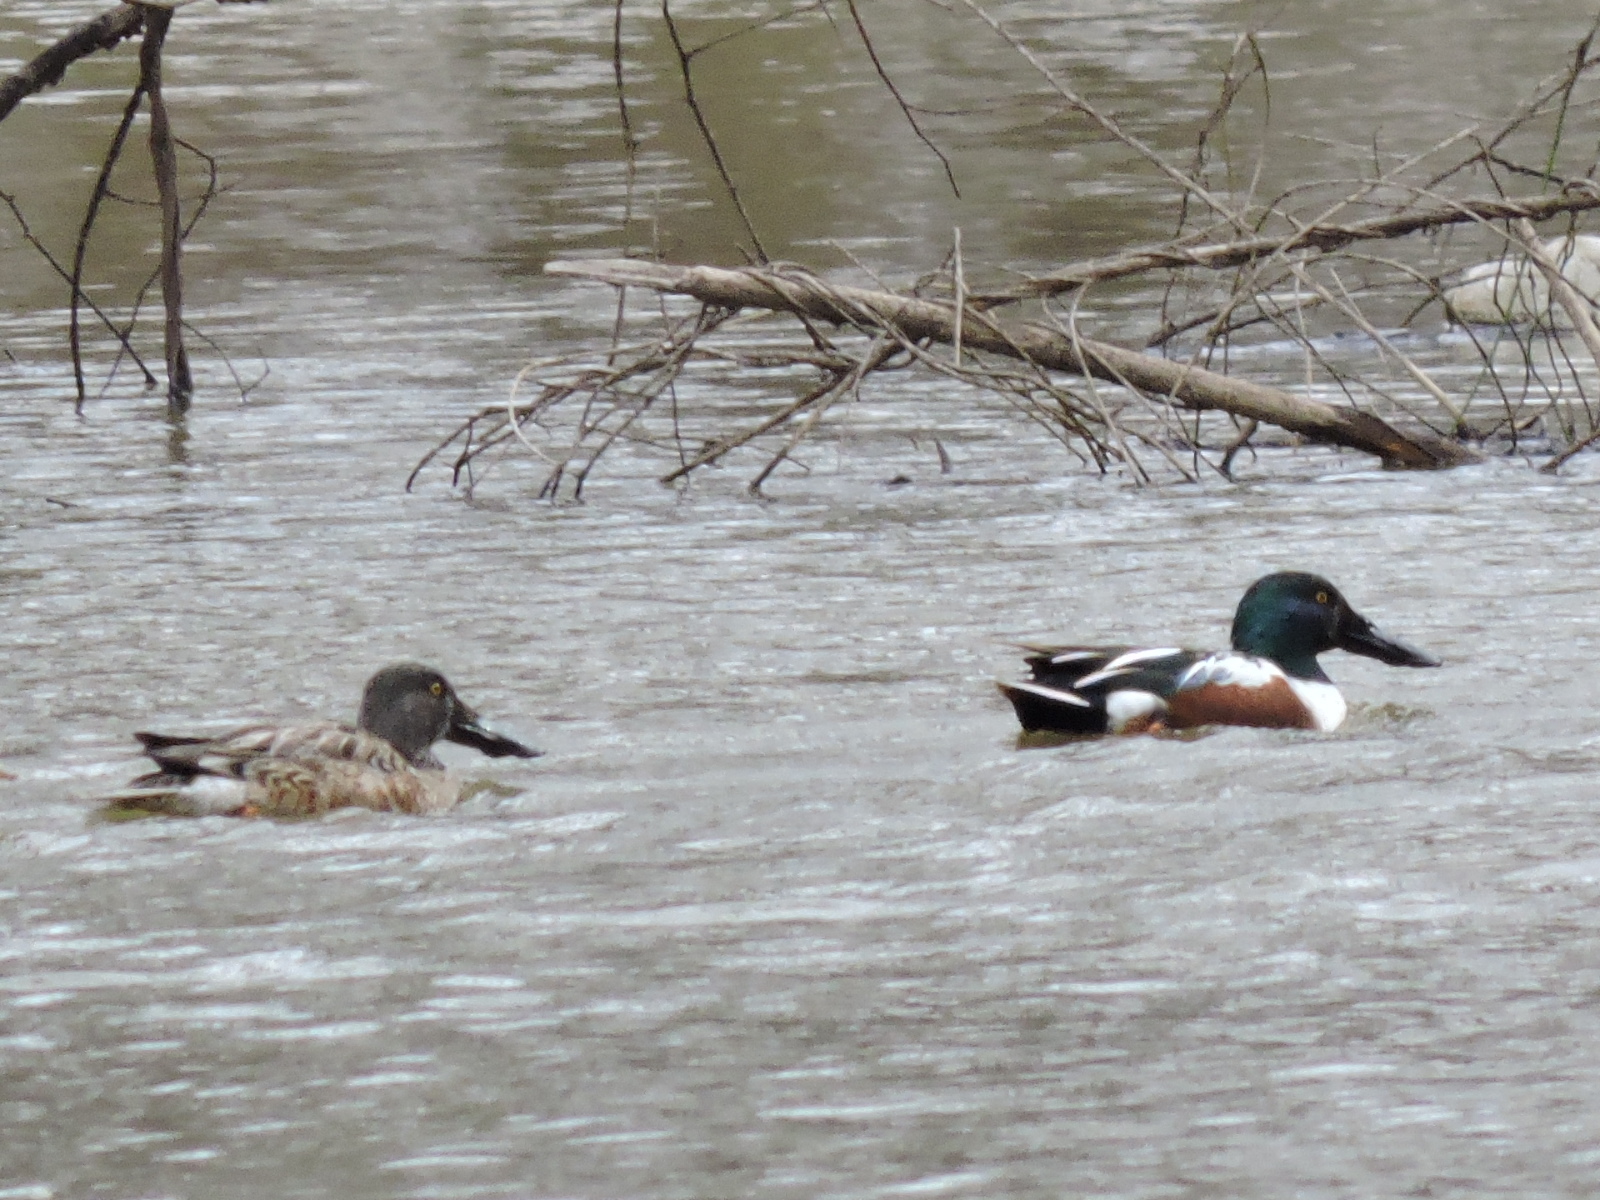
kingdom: Animalia
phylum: Chordata
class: Aves
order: Anseriformes
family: Anatidae
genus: Spatula
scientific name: Spatula clypeata
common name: Northern shoveler
